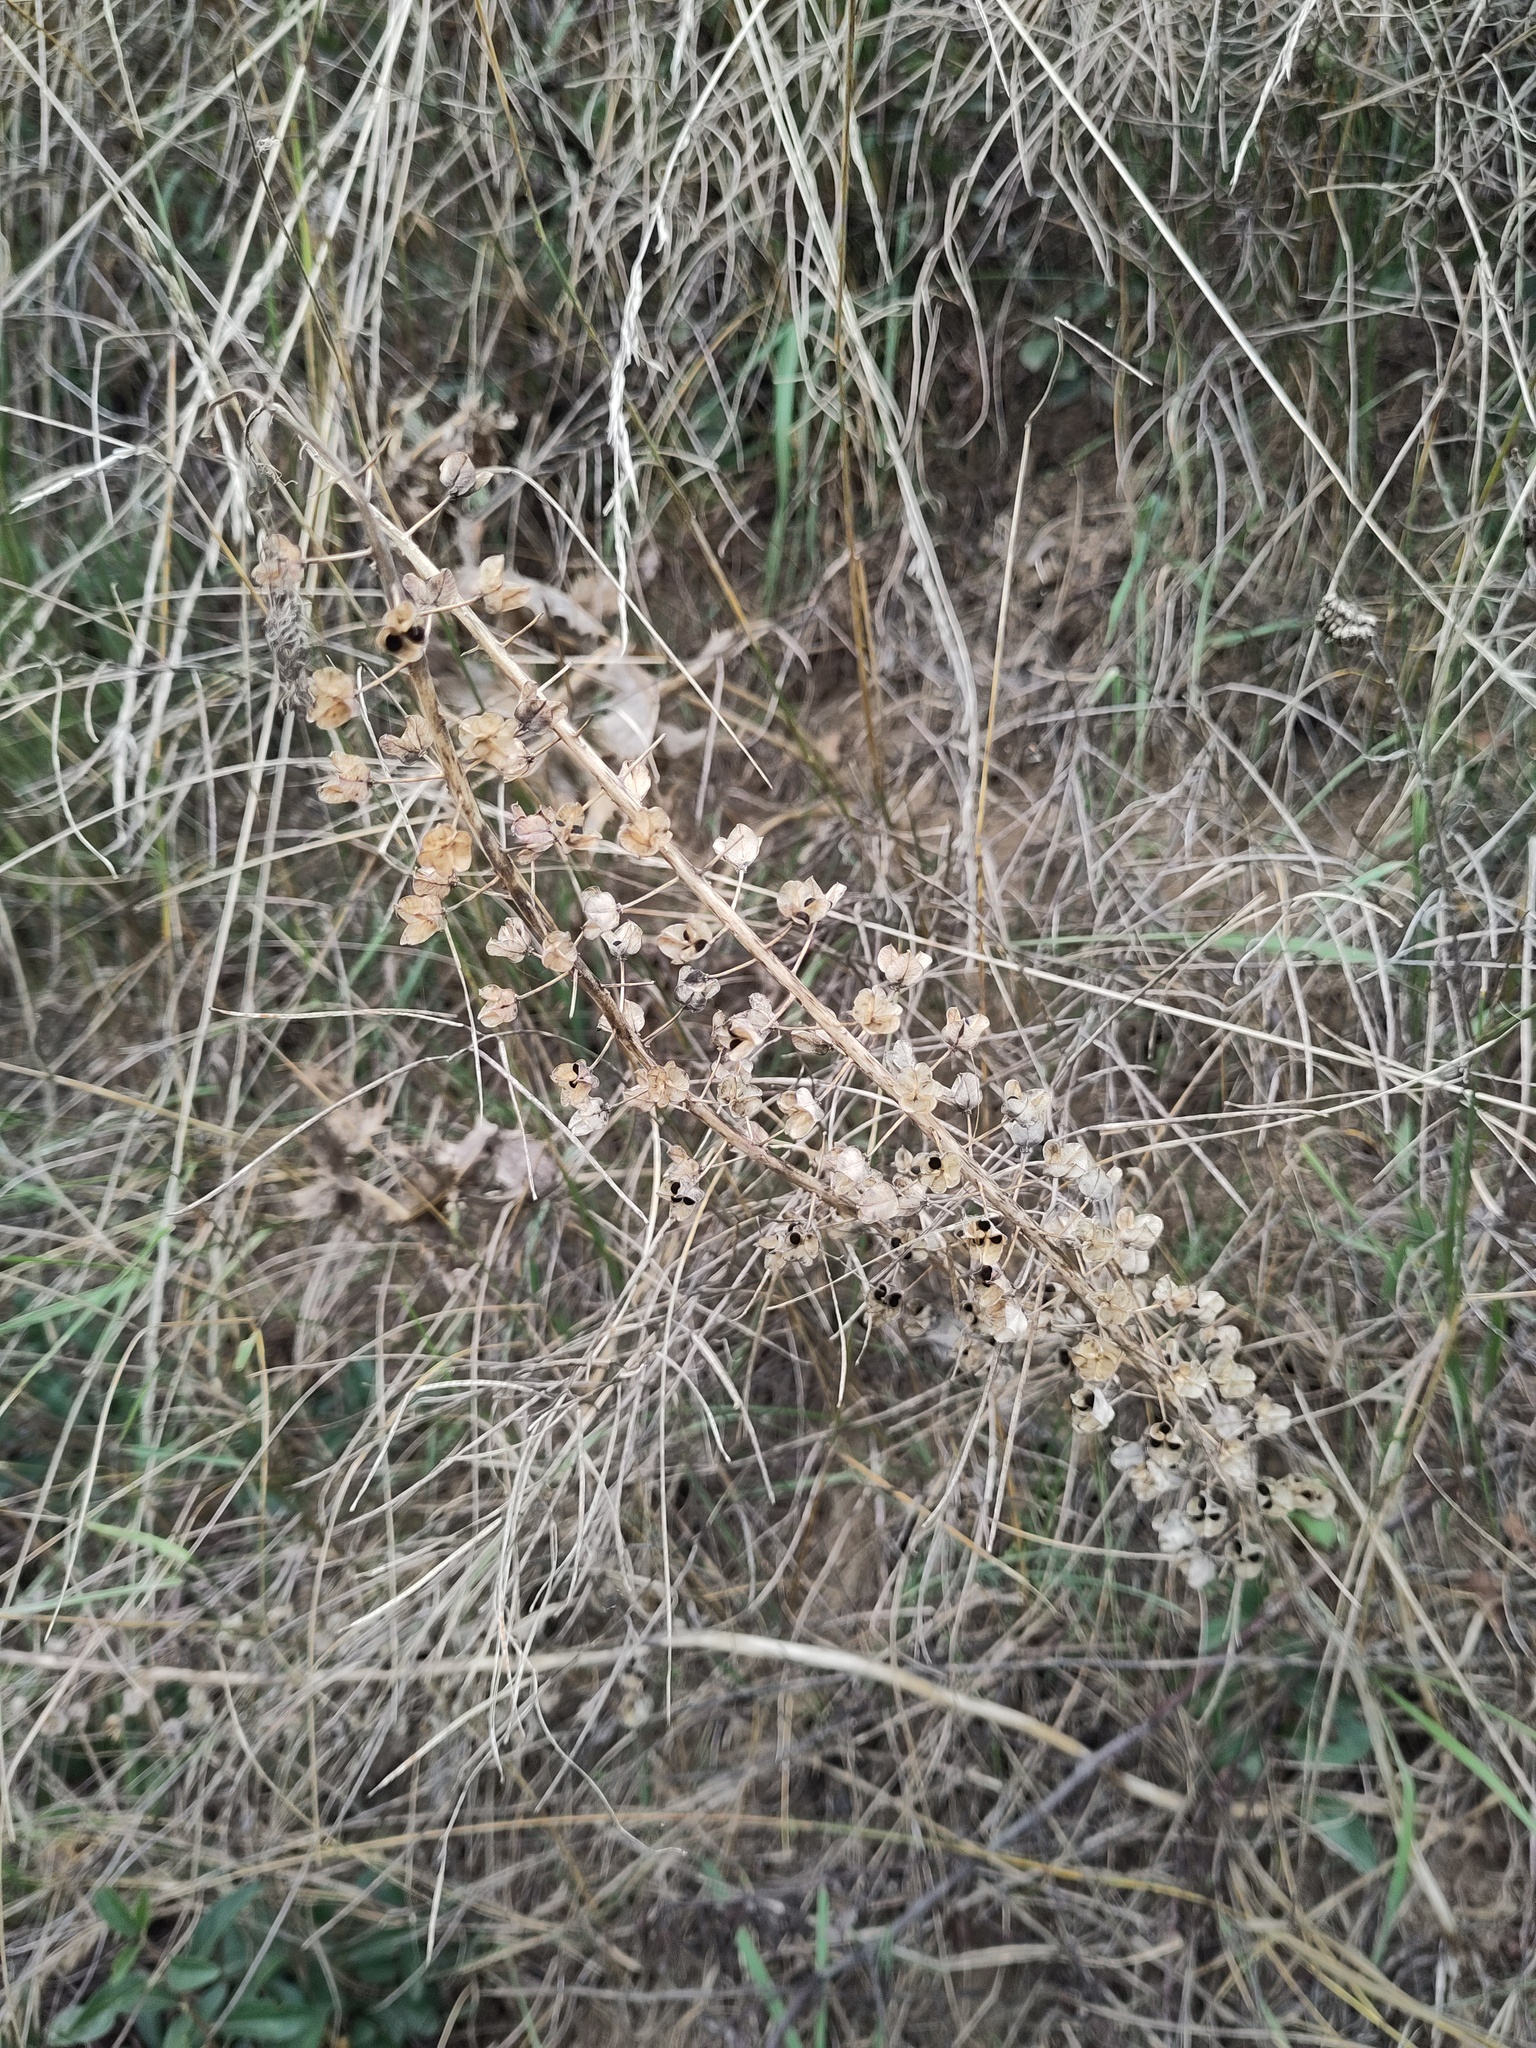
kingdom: Plantae
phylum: Tracheophyta
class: Liliopsida
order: Asparagales
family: Asparagaceae
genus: Muscari
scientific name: Muscari comosum
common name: Tassel hyacinth
